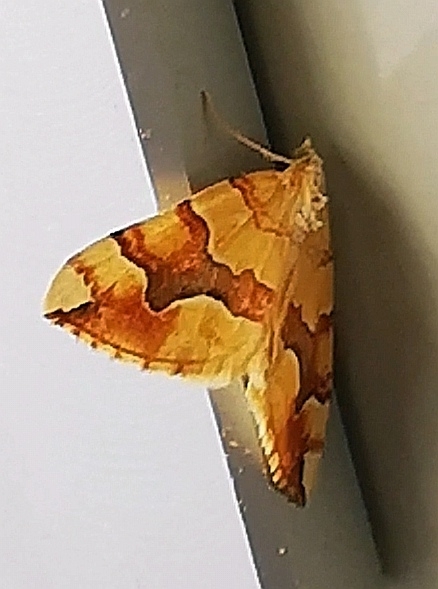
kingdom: Animalia
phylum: Arthropoda
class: Insecta
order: Lepidoptera
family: Geometridae
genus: Cidaria
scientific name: Cidaria fulvata
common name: Barred yellow
